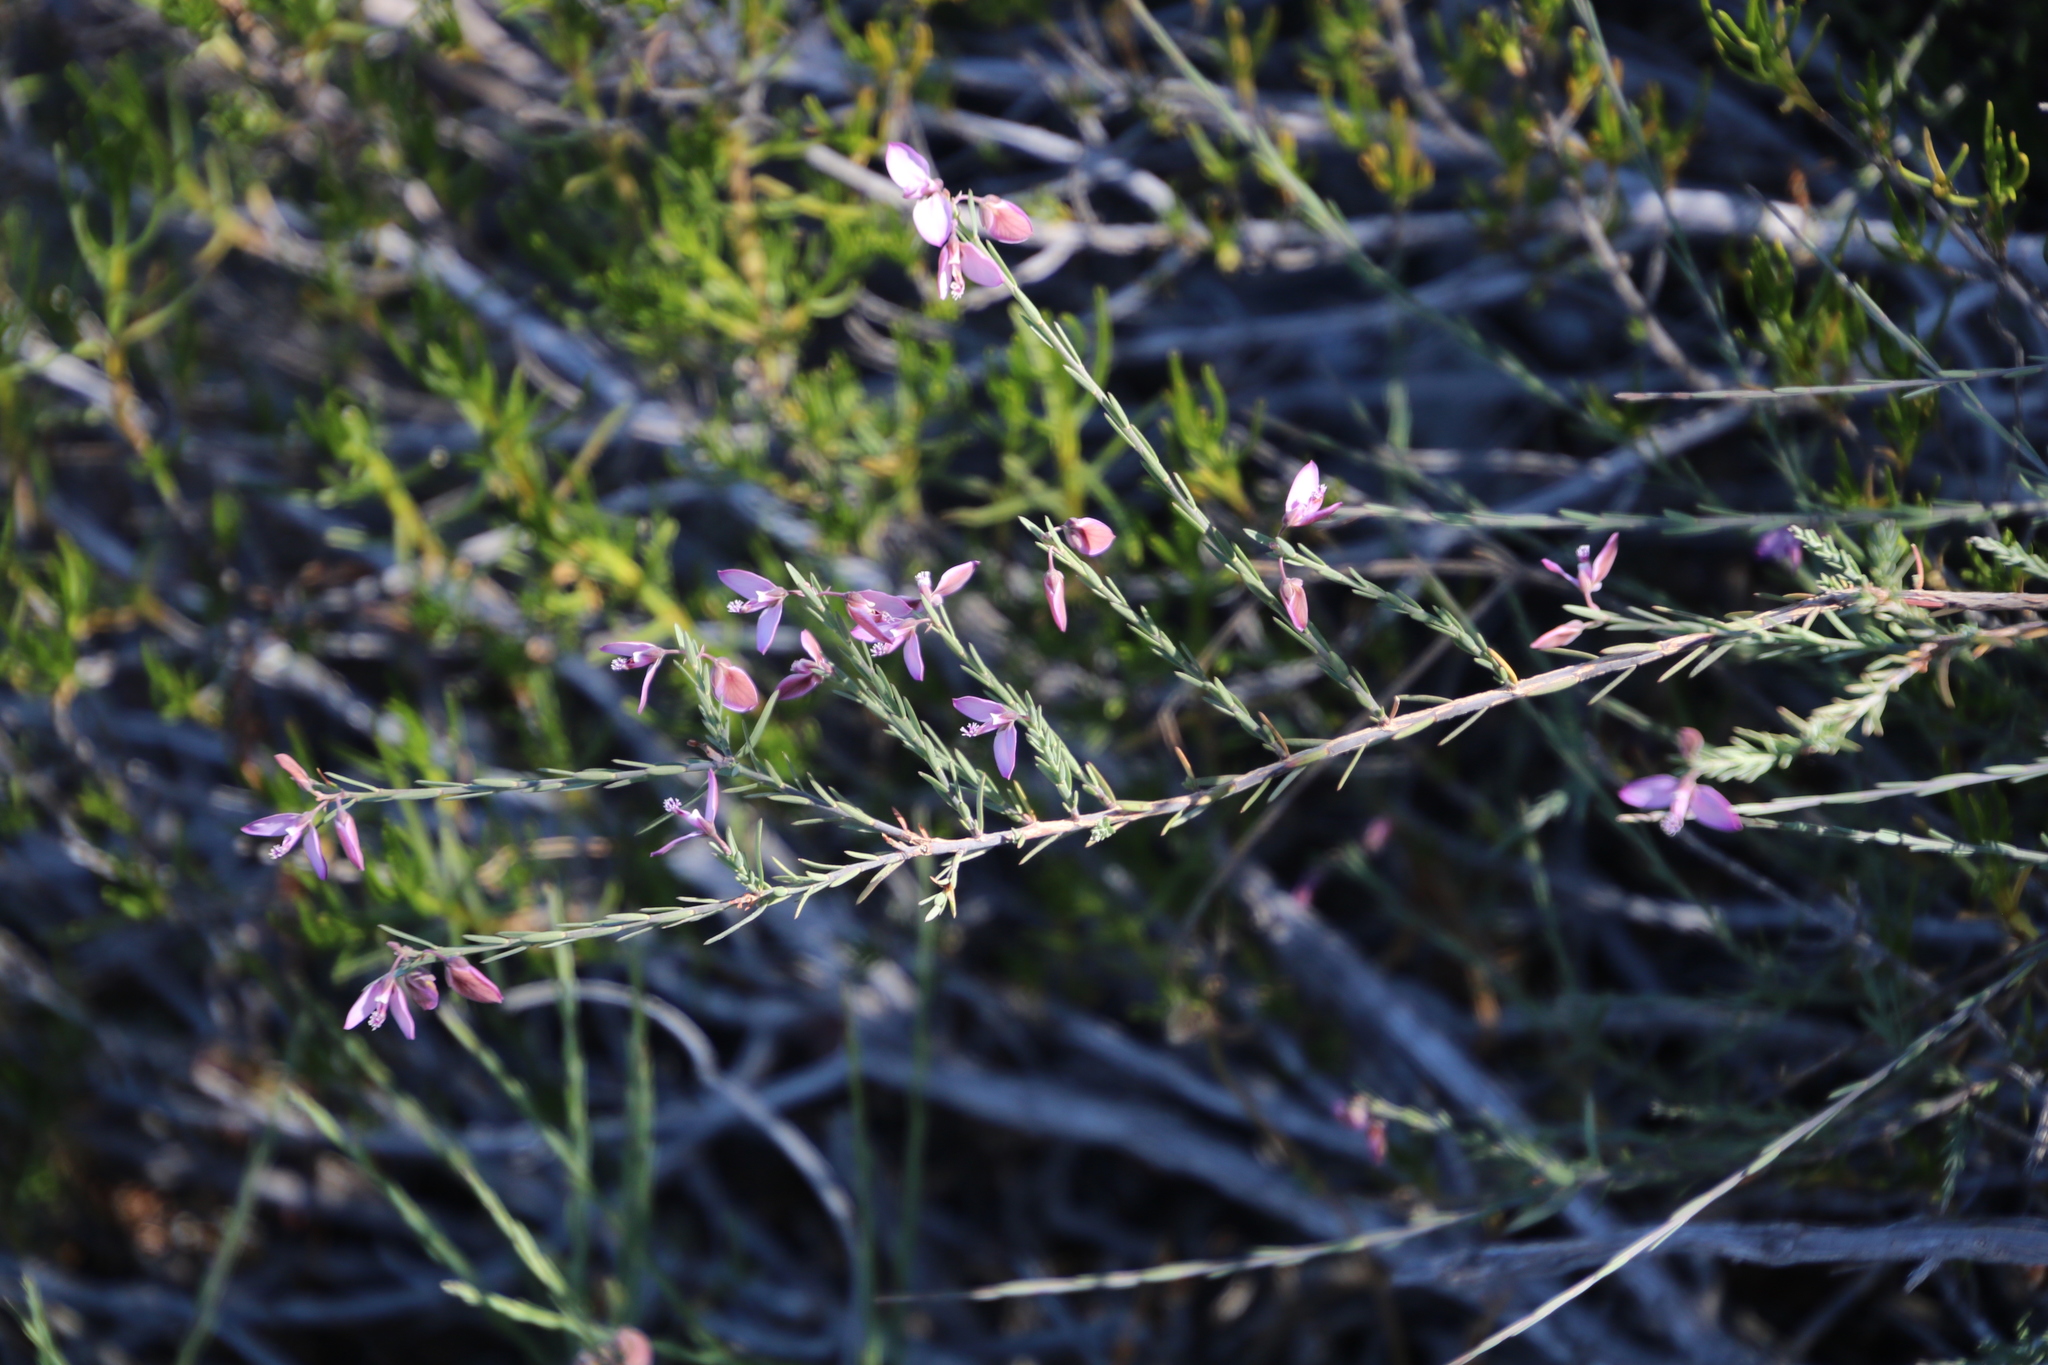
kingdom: Plantae
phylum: Tracheophyta
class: Magnoliopsida
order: Fabales
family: Polygalaceae
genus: Polygala
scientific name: Polygala microlopha
